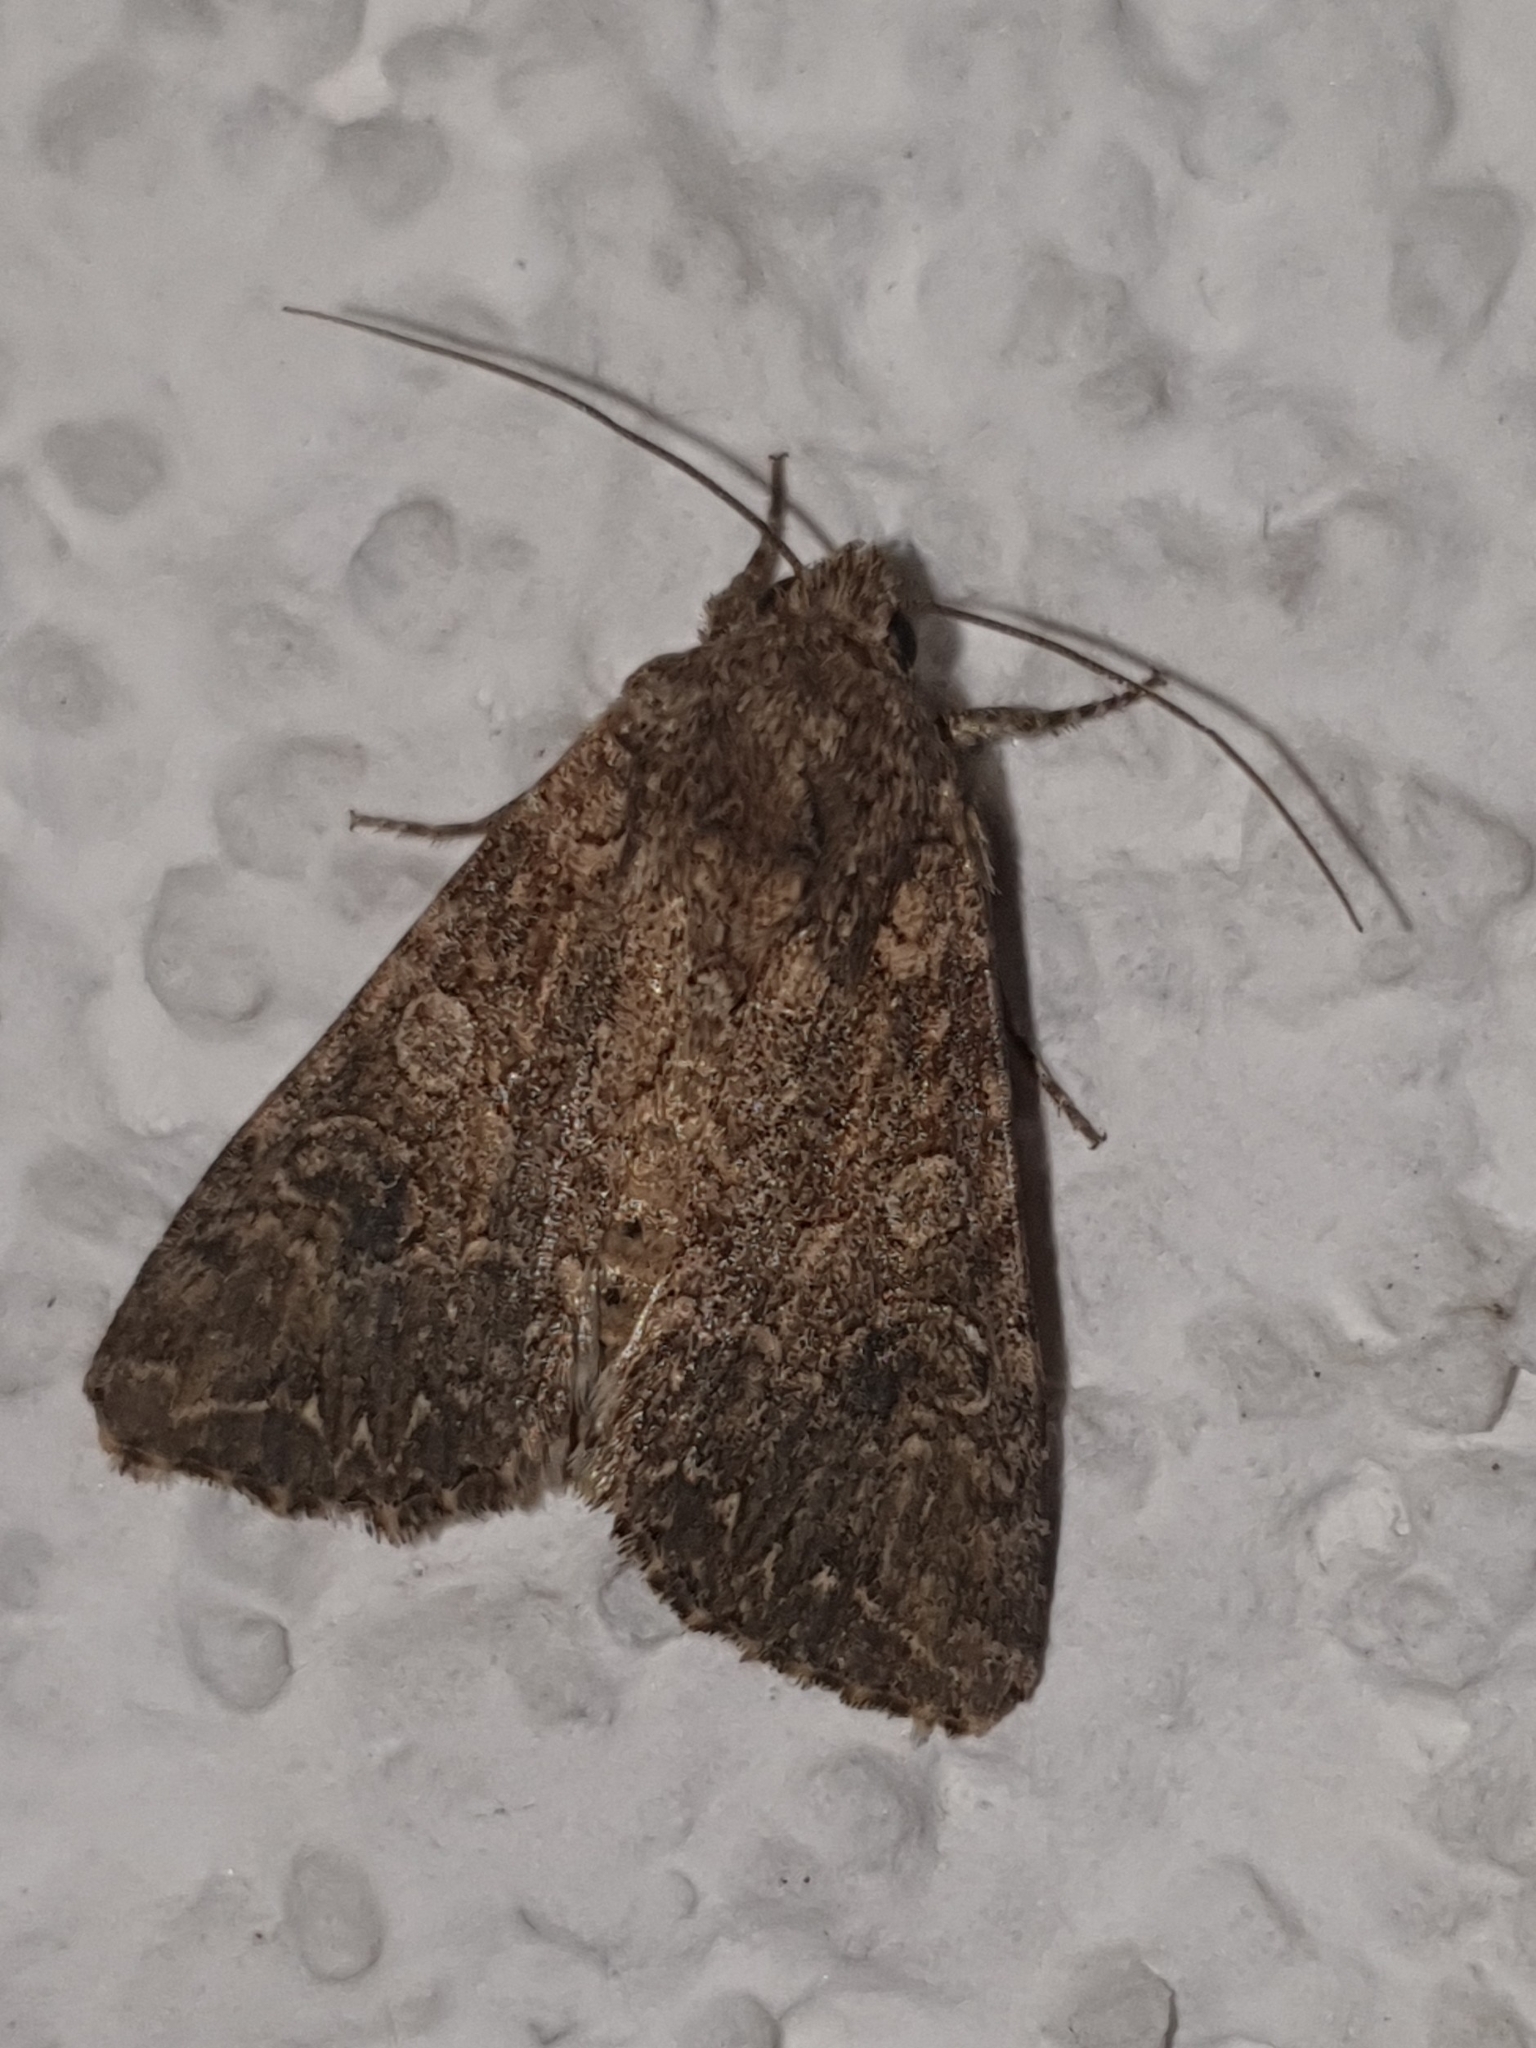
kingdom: Animalia
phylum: Arthropoda
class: Insecta
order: Lepidoptera
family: Noctuidae
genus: Anarta
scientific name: Anarta trifolii
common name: Clover cutworm moth
